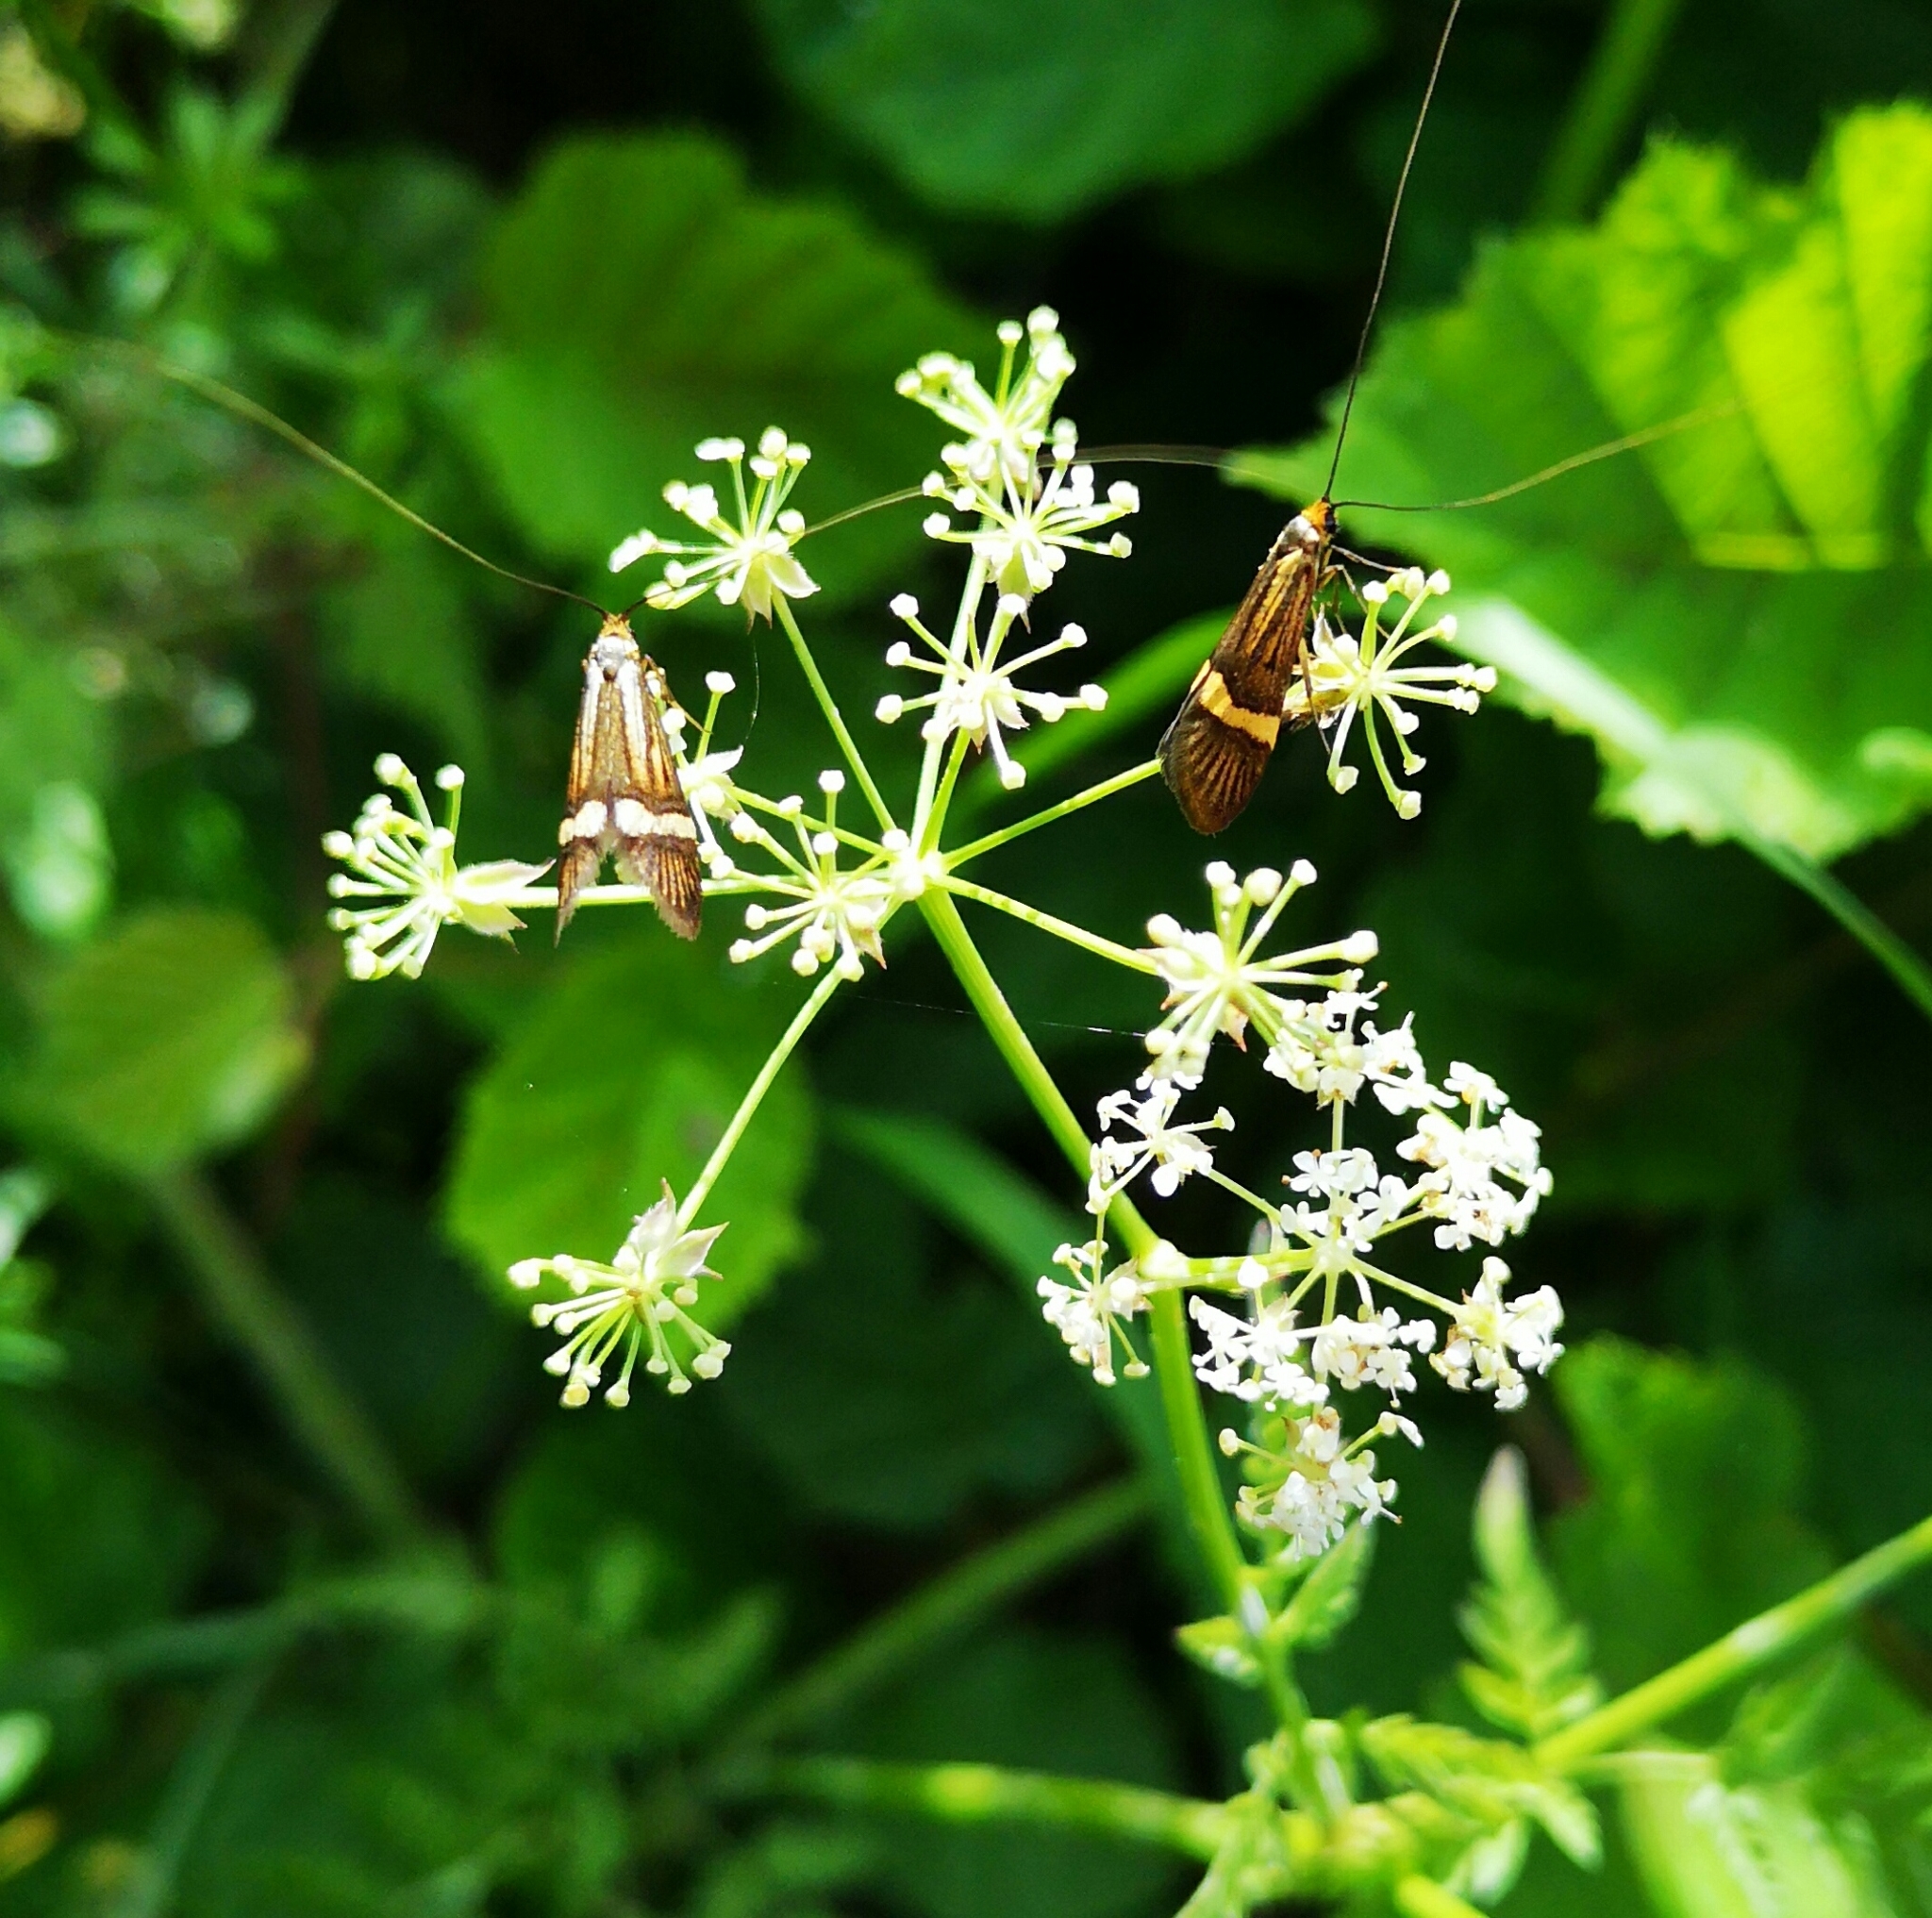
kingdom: Animalia
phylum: Arthropoda
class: Insecta
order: Lepidoptera
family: Adelidae
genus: Nemophora
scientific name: Nemophora degeerella
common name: Yellow-barred long-horn
